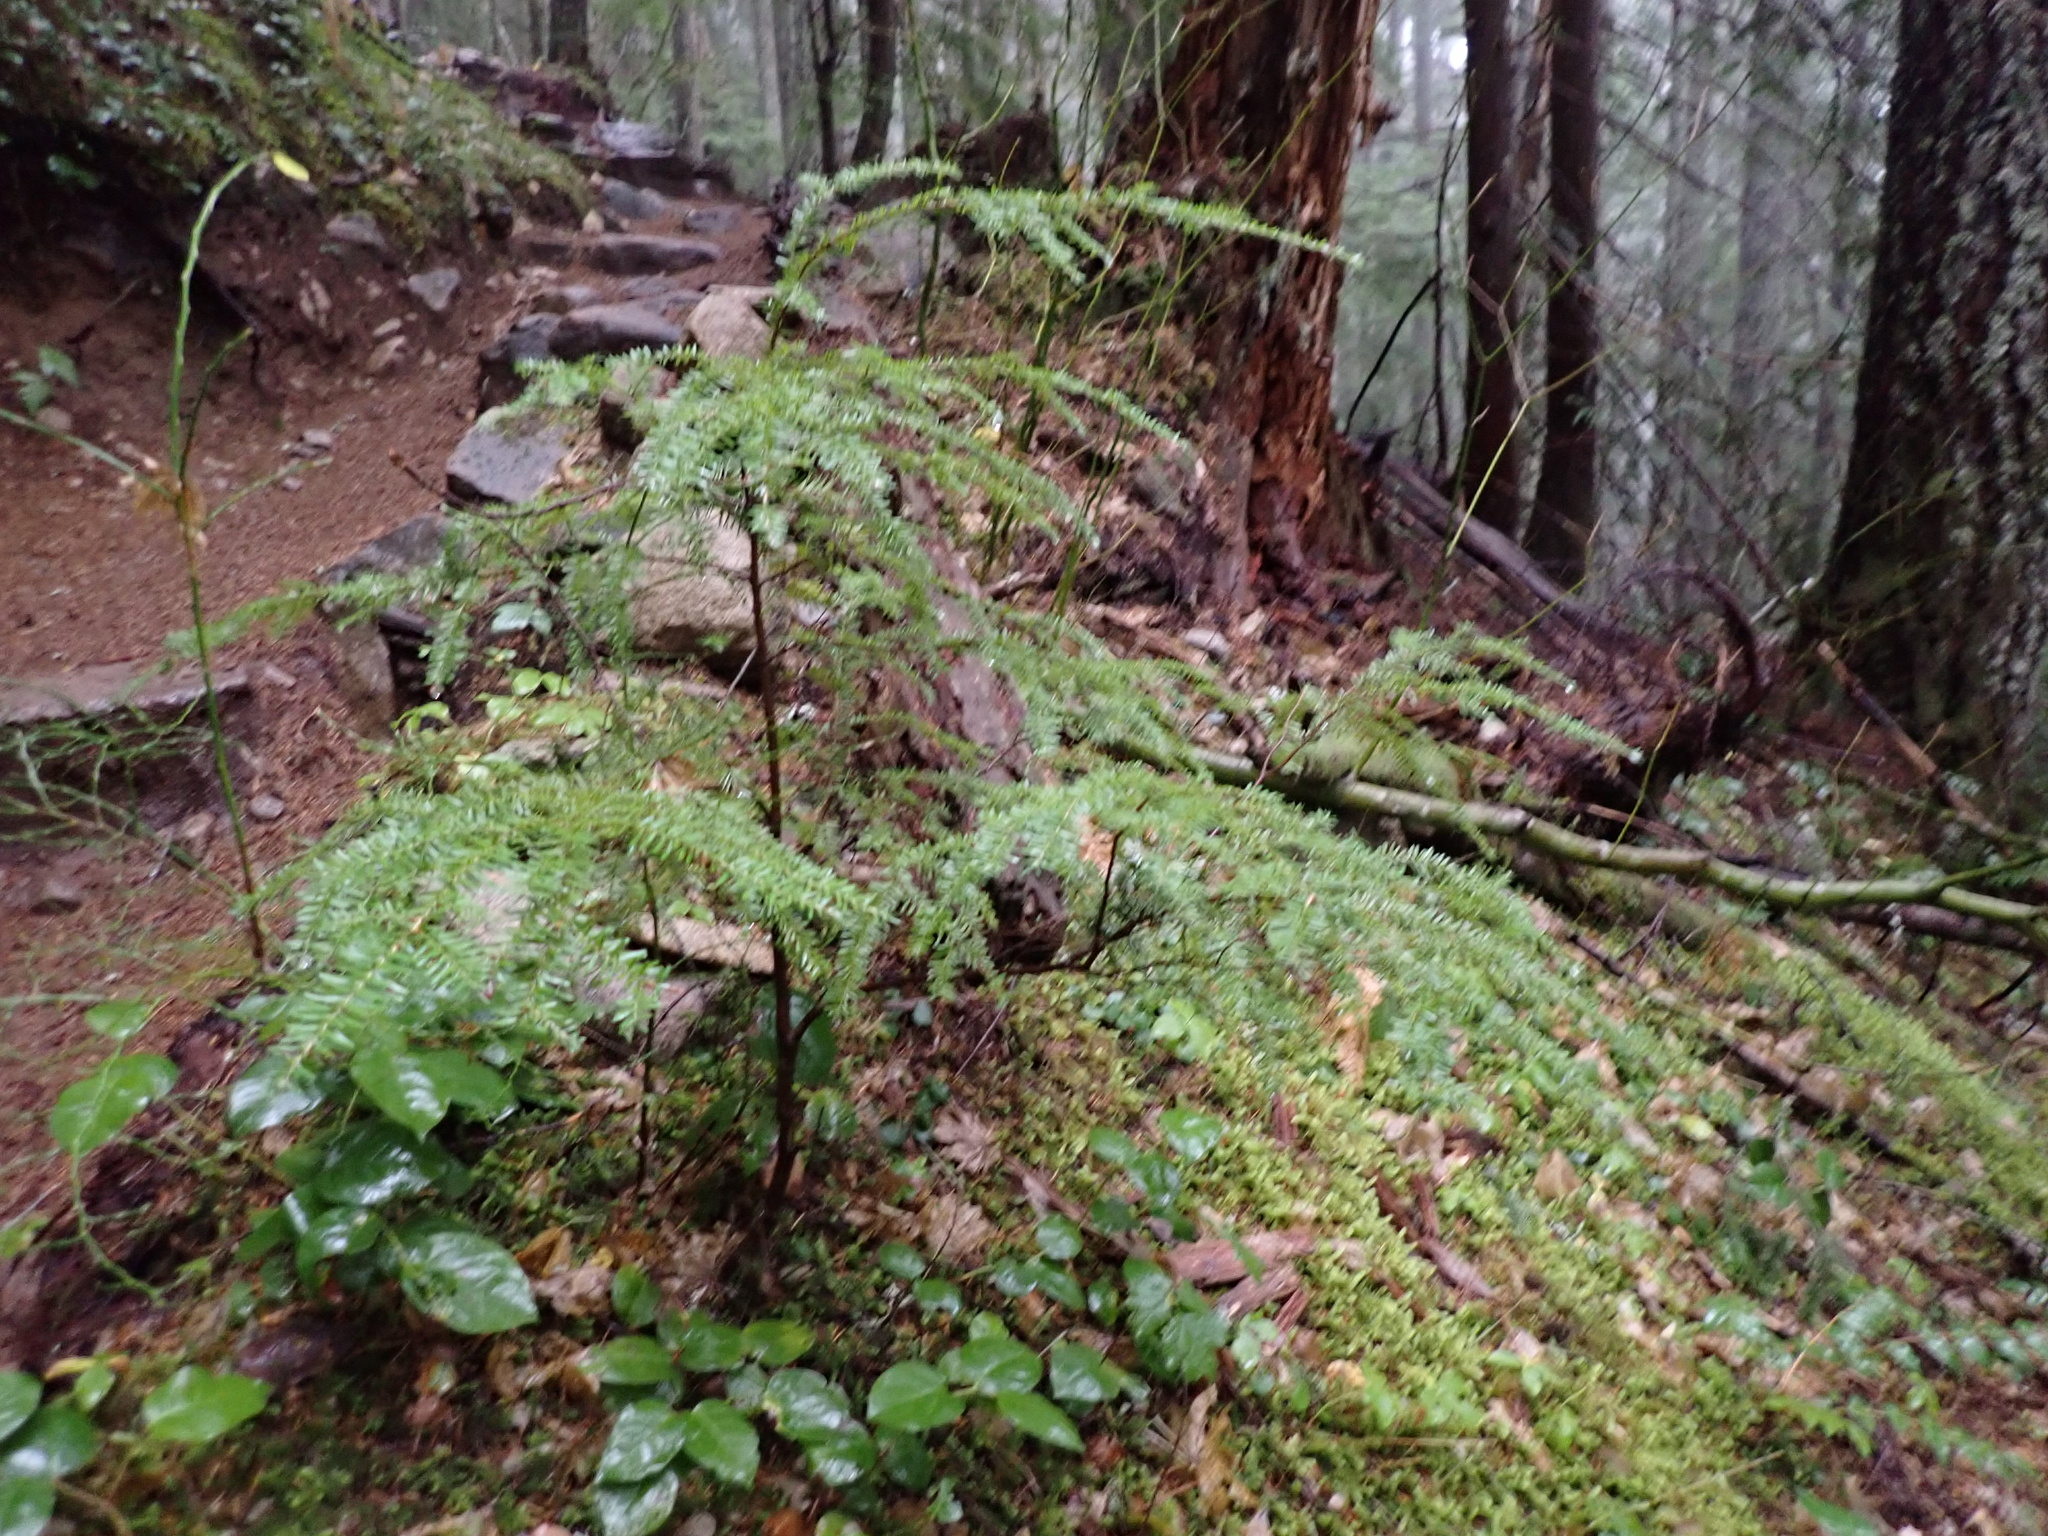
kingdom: Plantae
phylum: Tracheophyta
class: Pinopsida
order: Pinales
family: Pinaceae
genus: Tsuga
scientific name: Tsuga heterophylla
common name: Western hemlock
